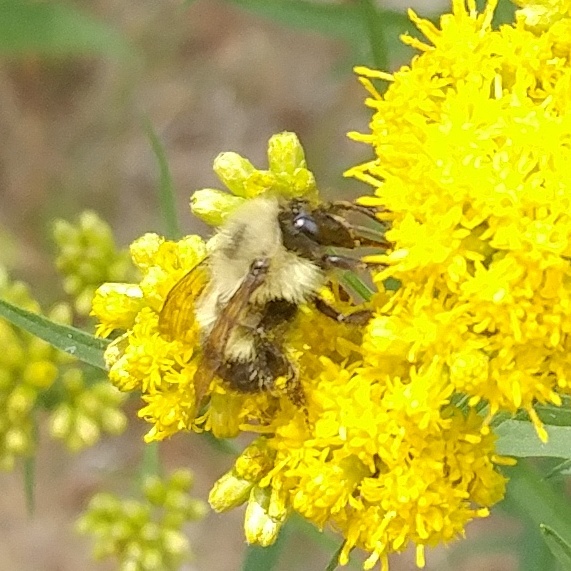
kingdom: Animalia
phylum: Arthropoda
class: Insecta
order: Hymenoptera
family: Apidae
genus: Bombus
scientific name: Bombus vagans
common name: Half-black bumble bee
